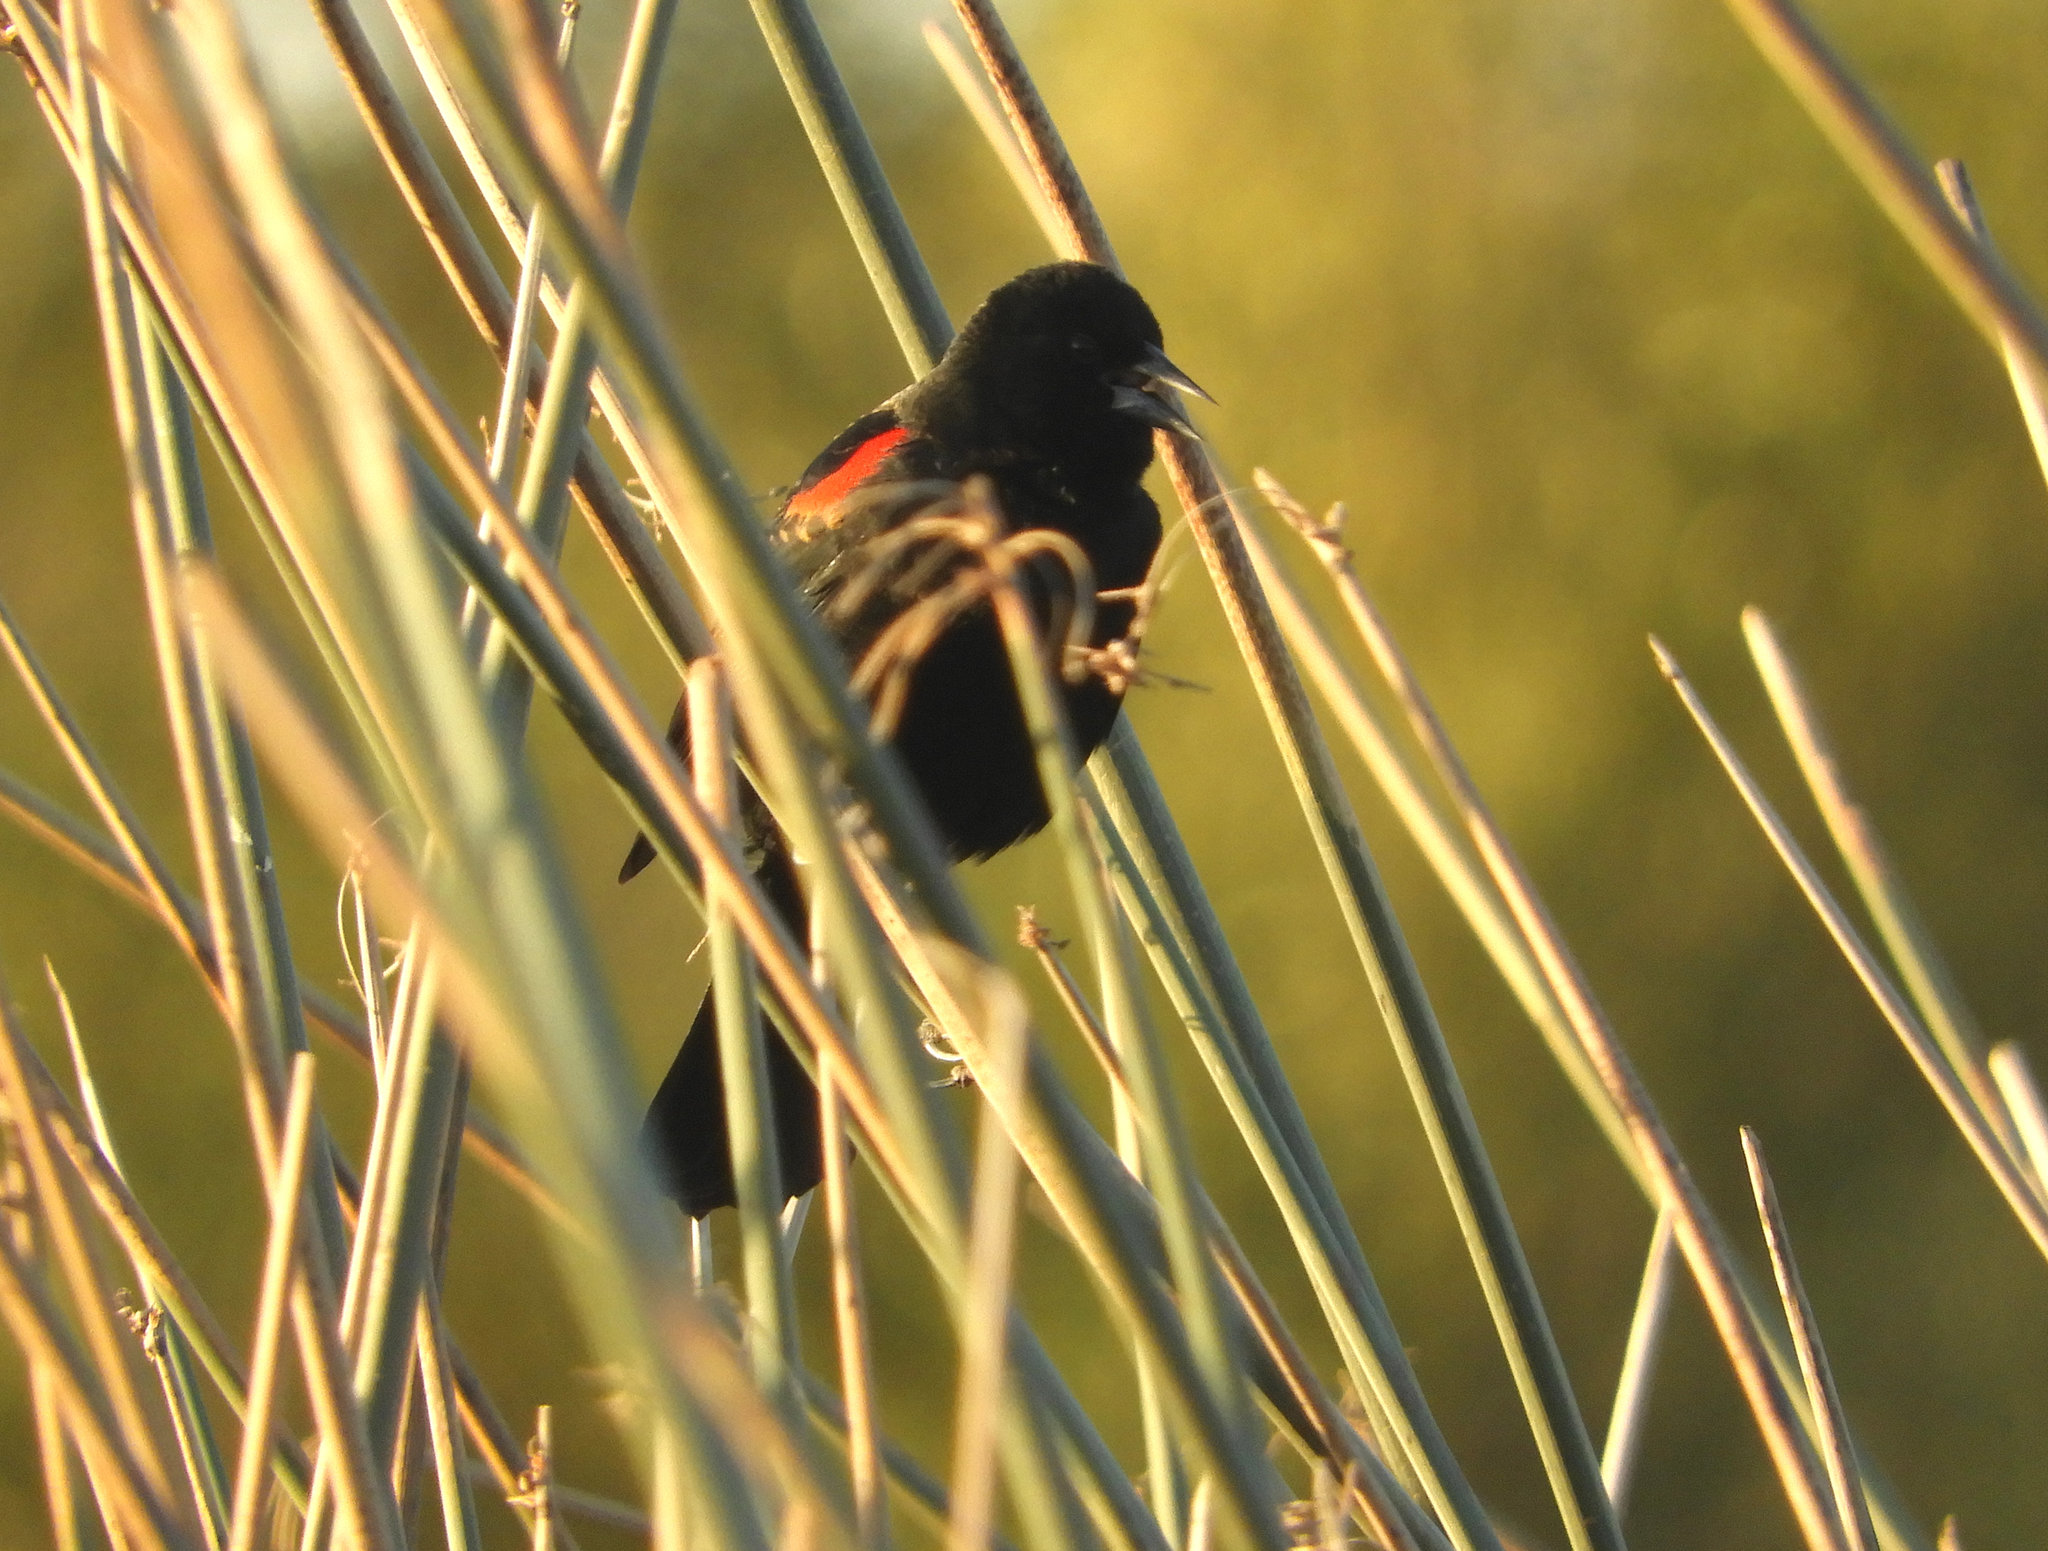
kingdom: Animalia
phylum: Chordata
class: Aves
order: Passeriformes
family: Icteridae
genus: Agelaius
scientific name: Agelaius phoeniceus
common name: Red-winged blackbird
